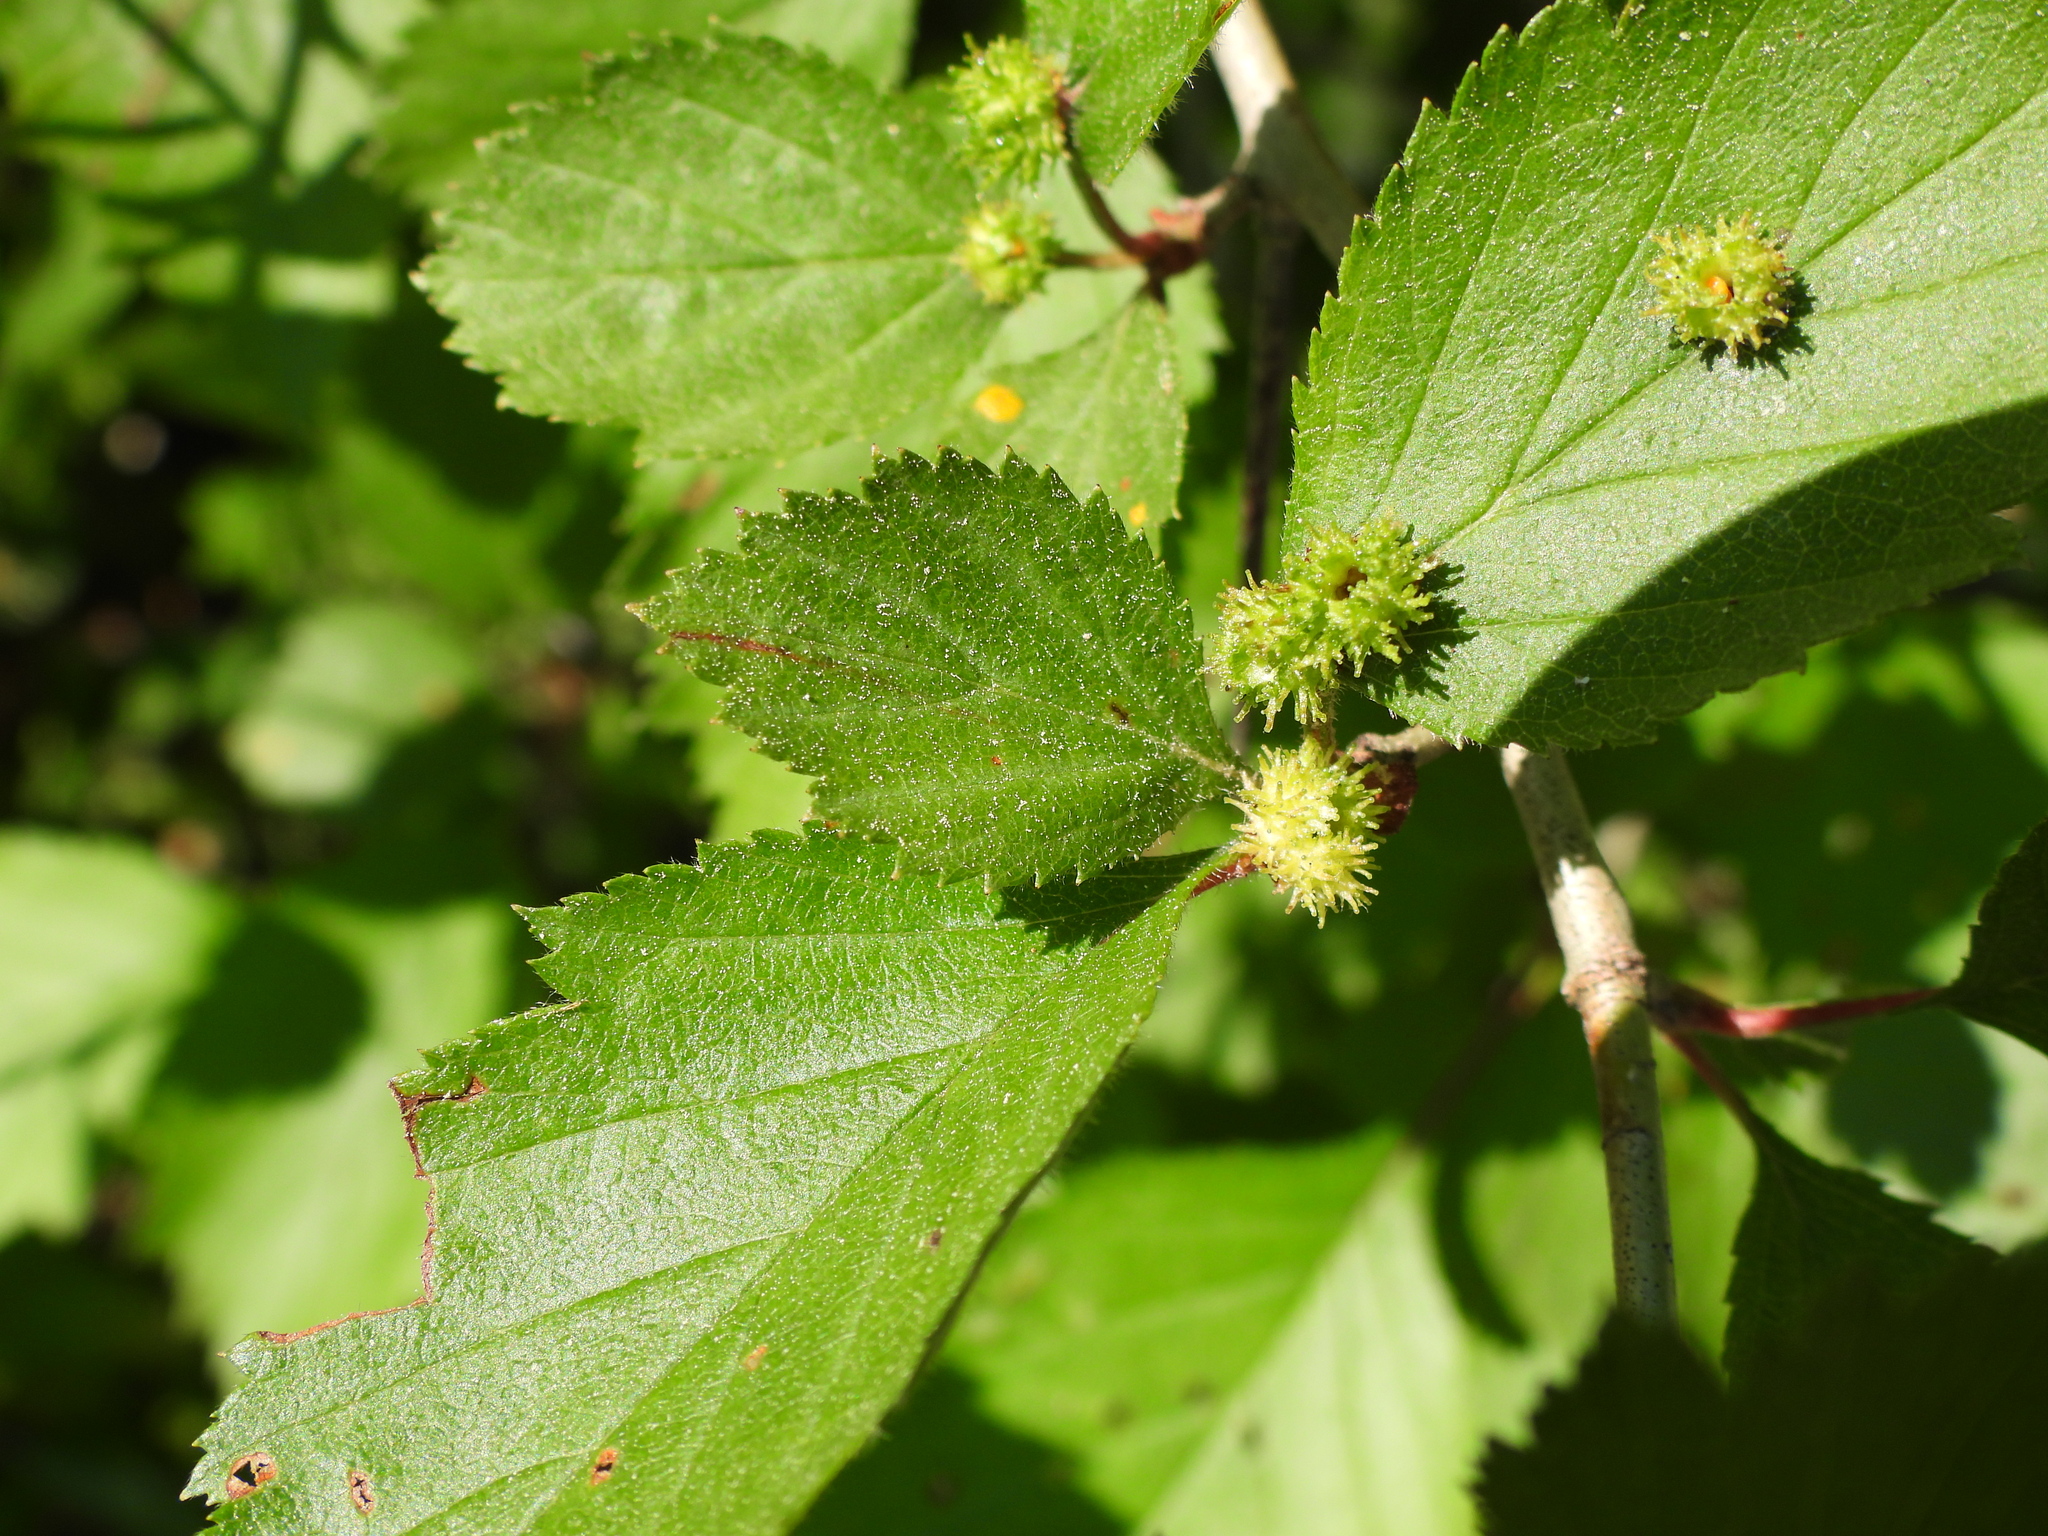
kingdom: Animalia
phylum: Arthropoda
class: Insecta
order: Diptera
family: Cecidomyiidae
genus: Blaesodiplosis
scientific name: Blaesodiplosis crataegibedeguar
